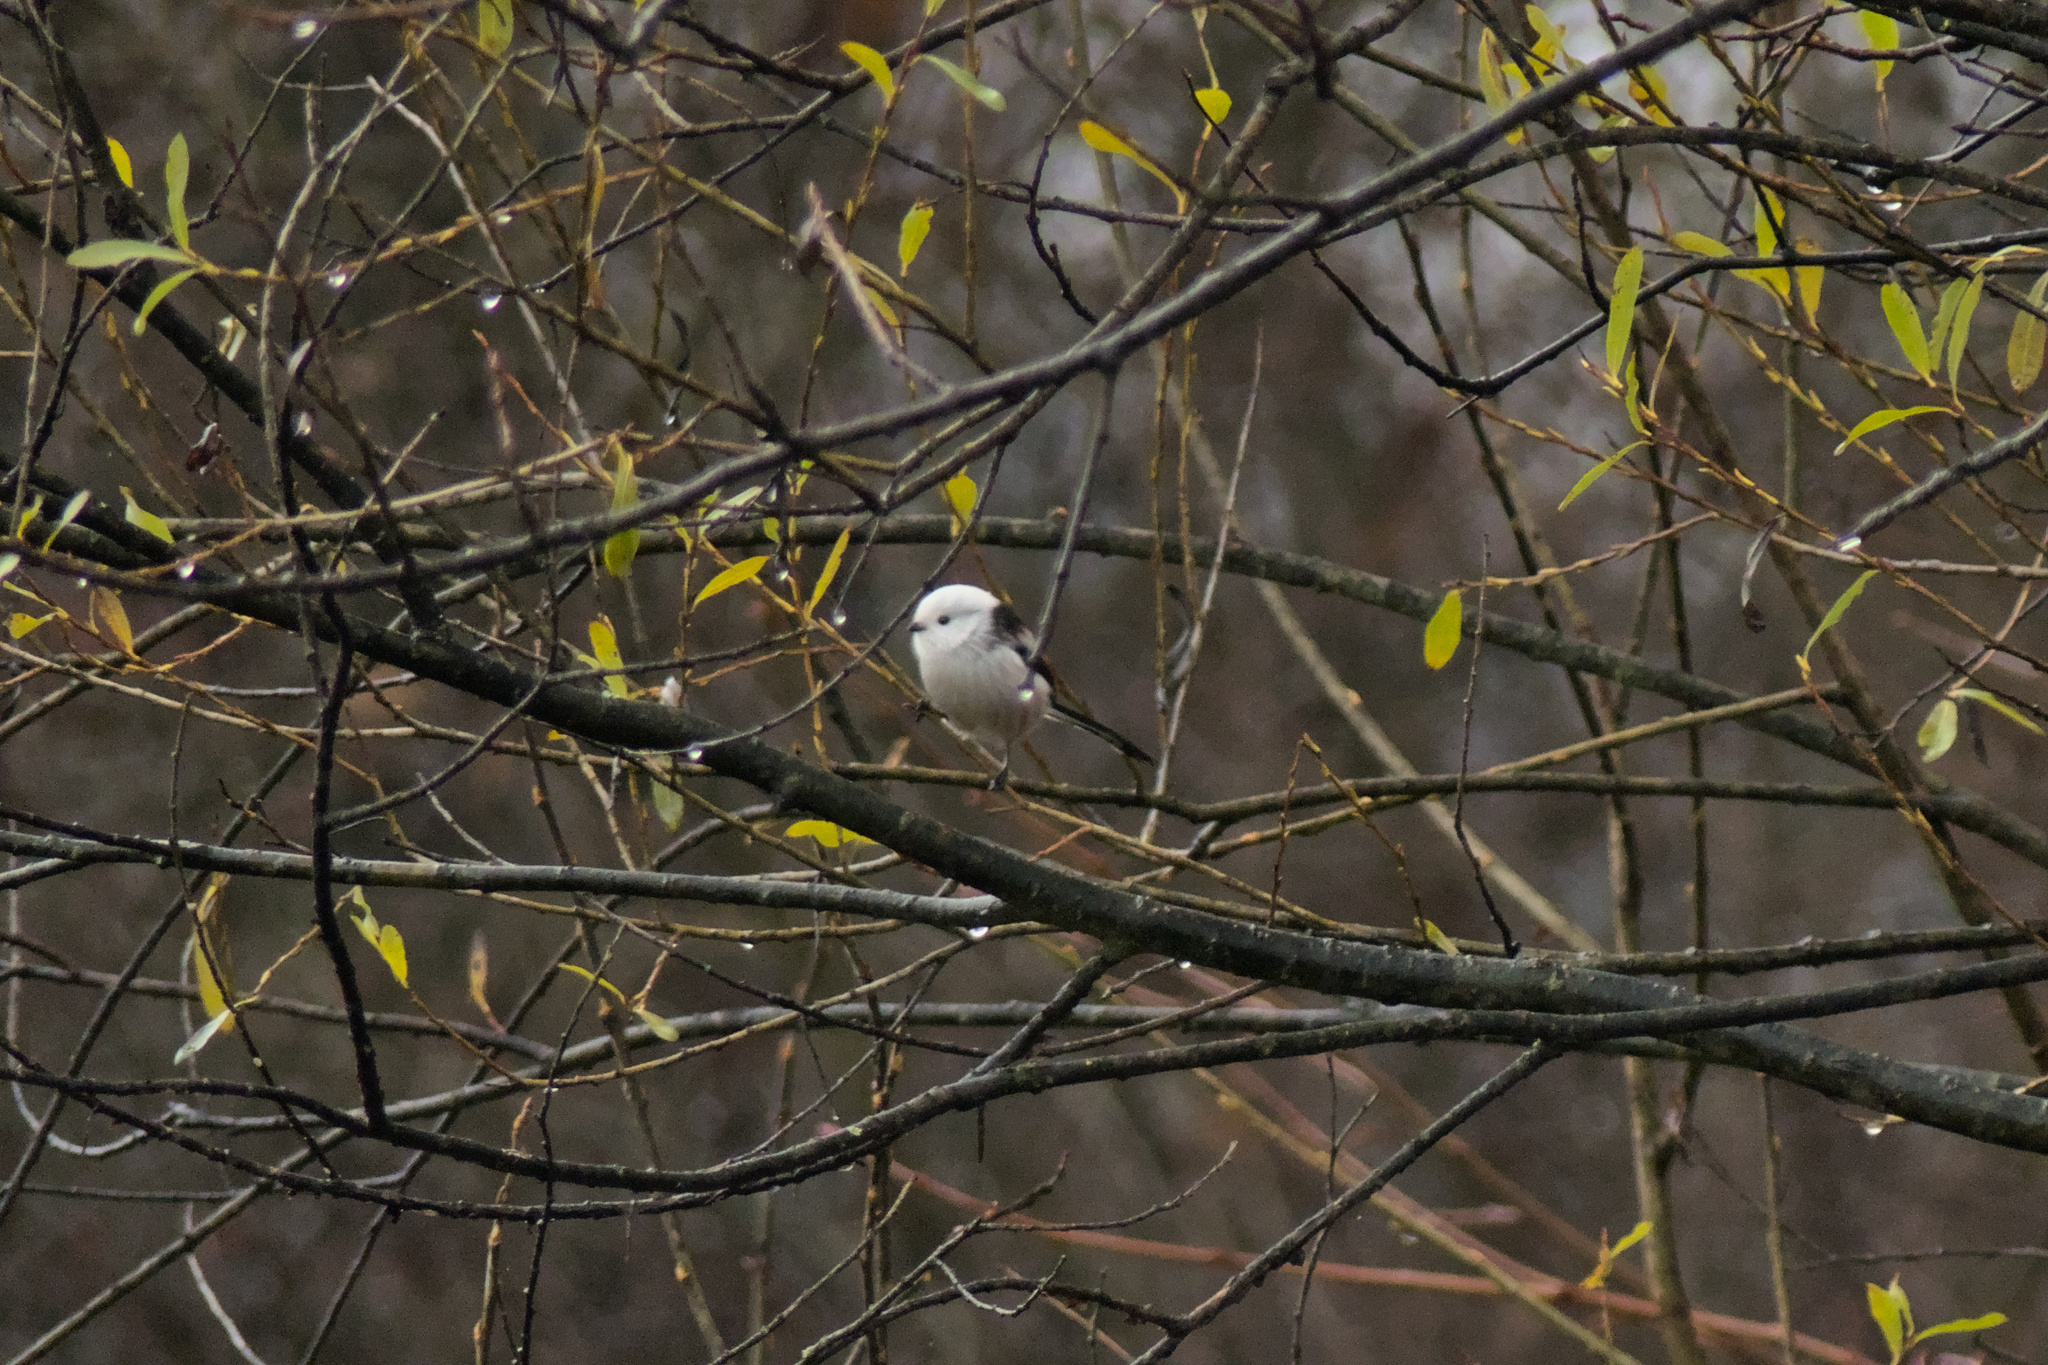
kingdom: Animalia
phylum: Chordata
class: Aves
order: Passeriformes
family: Aegithalidae
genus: Aegithalos
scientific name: Aegithalos caudatus
